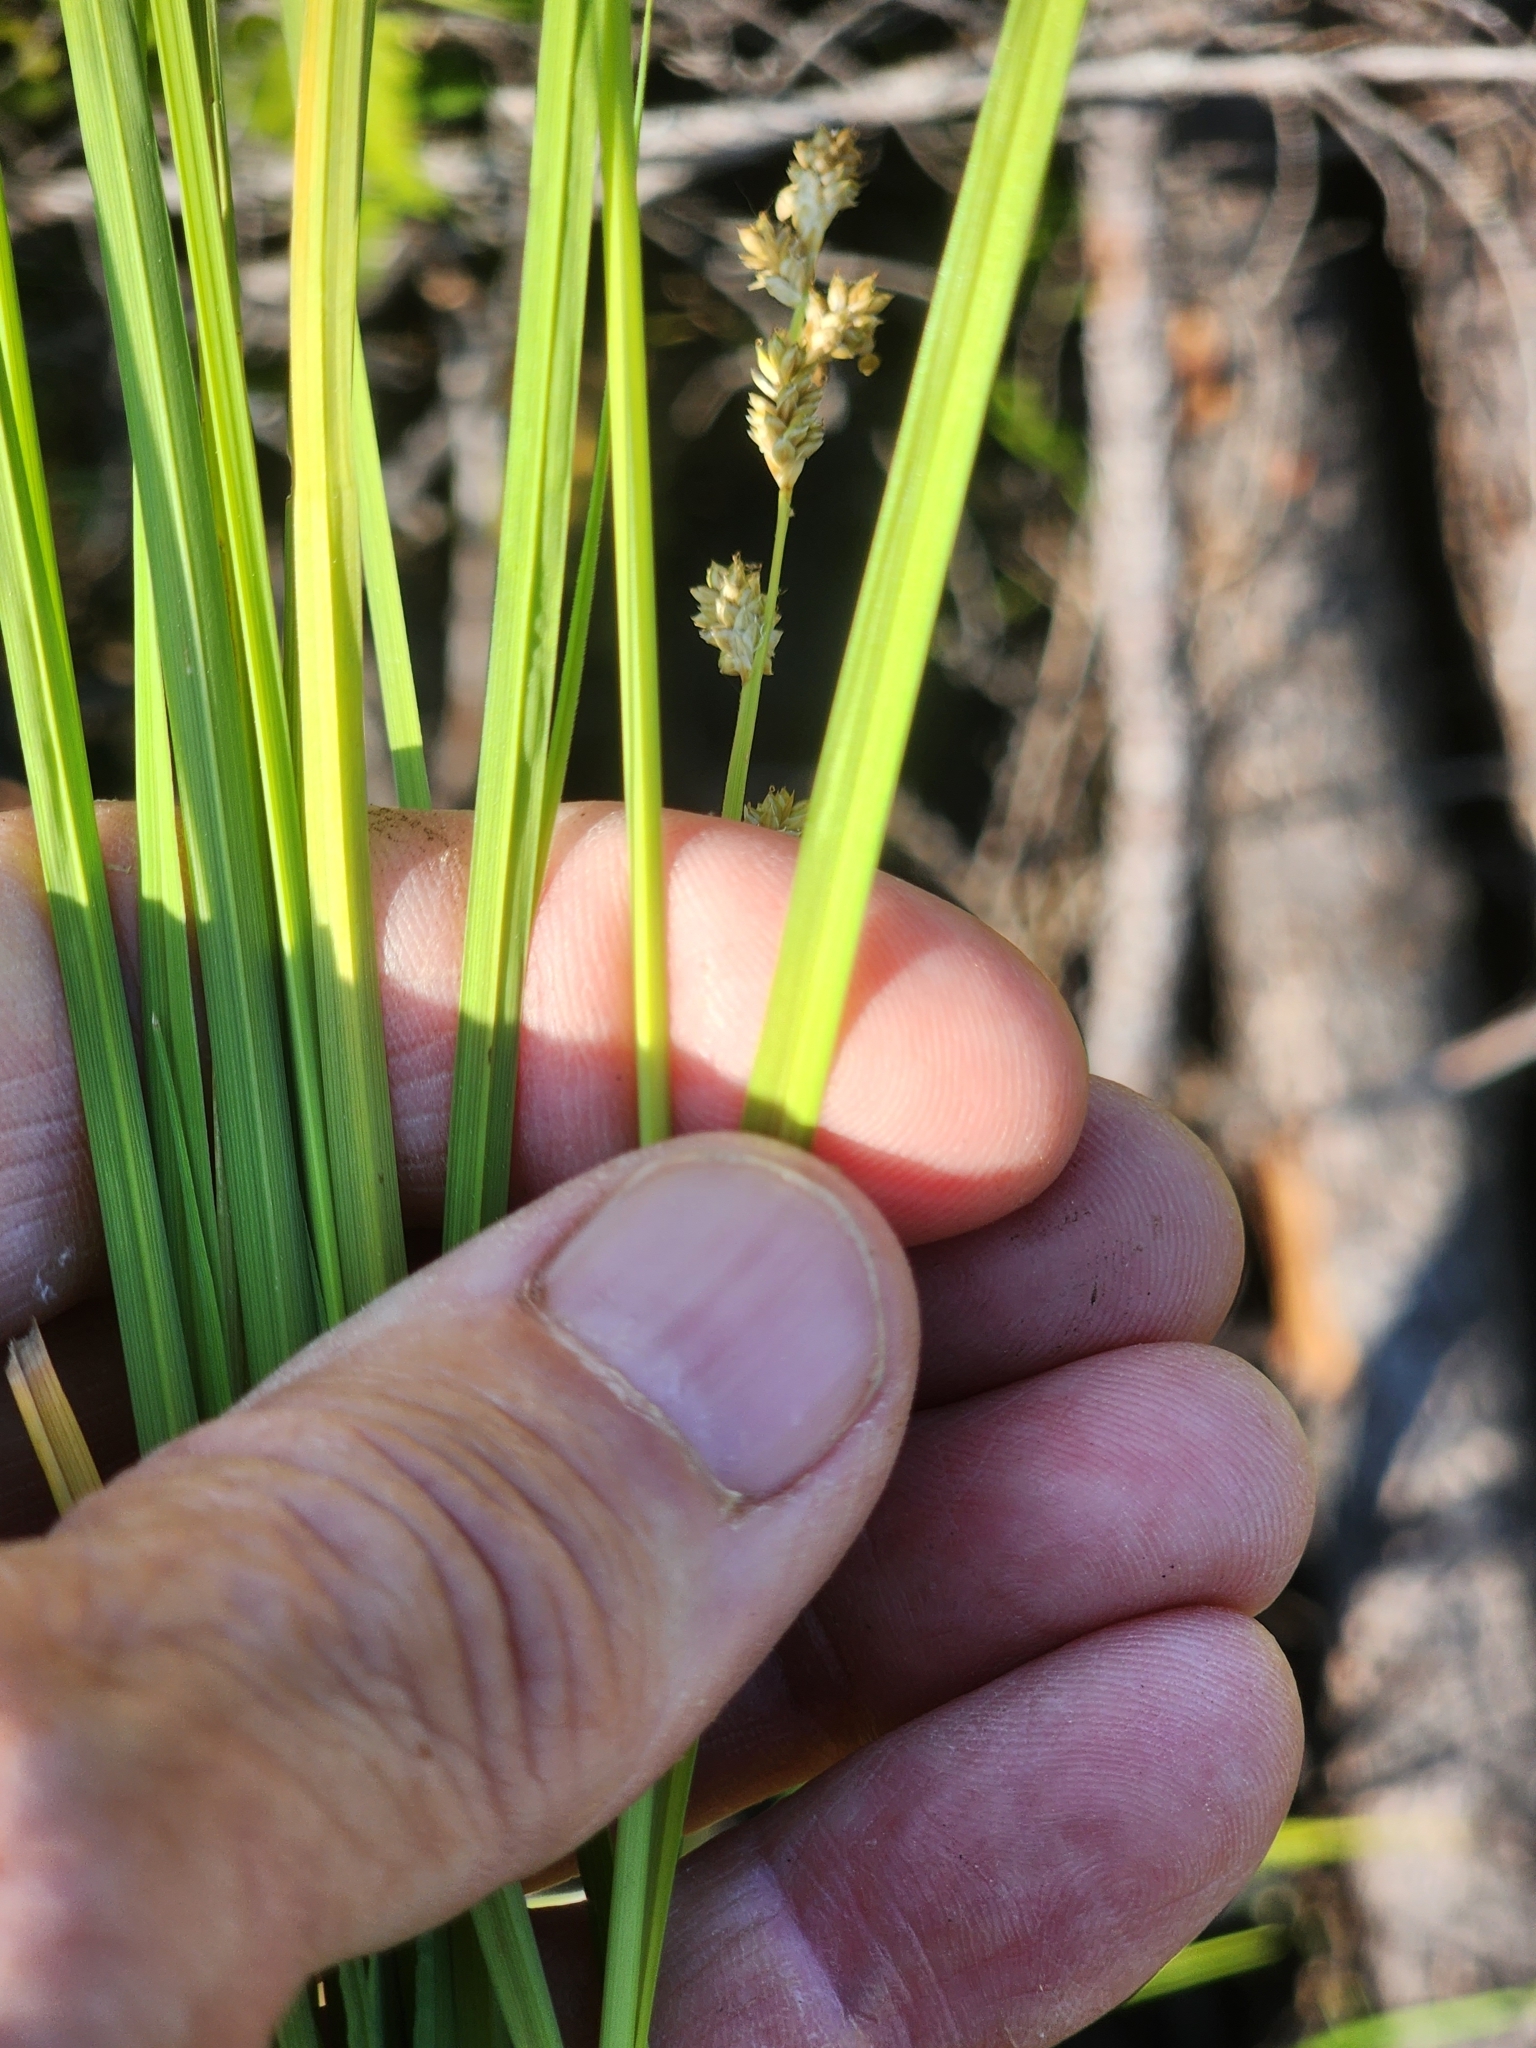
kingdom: Plantae
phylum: Tracheophyta
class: Liliopsida
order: Poales
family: Cyperaceae
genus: Carex
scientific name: Carex canescens
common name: White sedge
